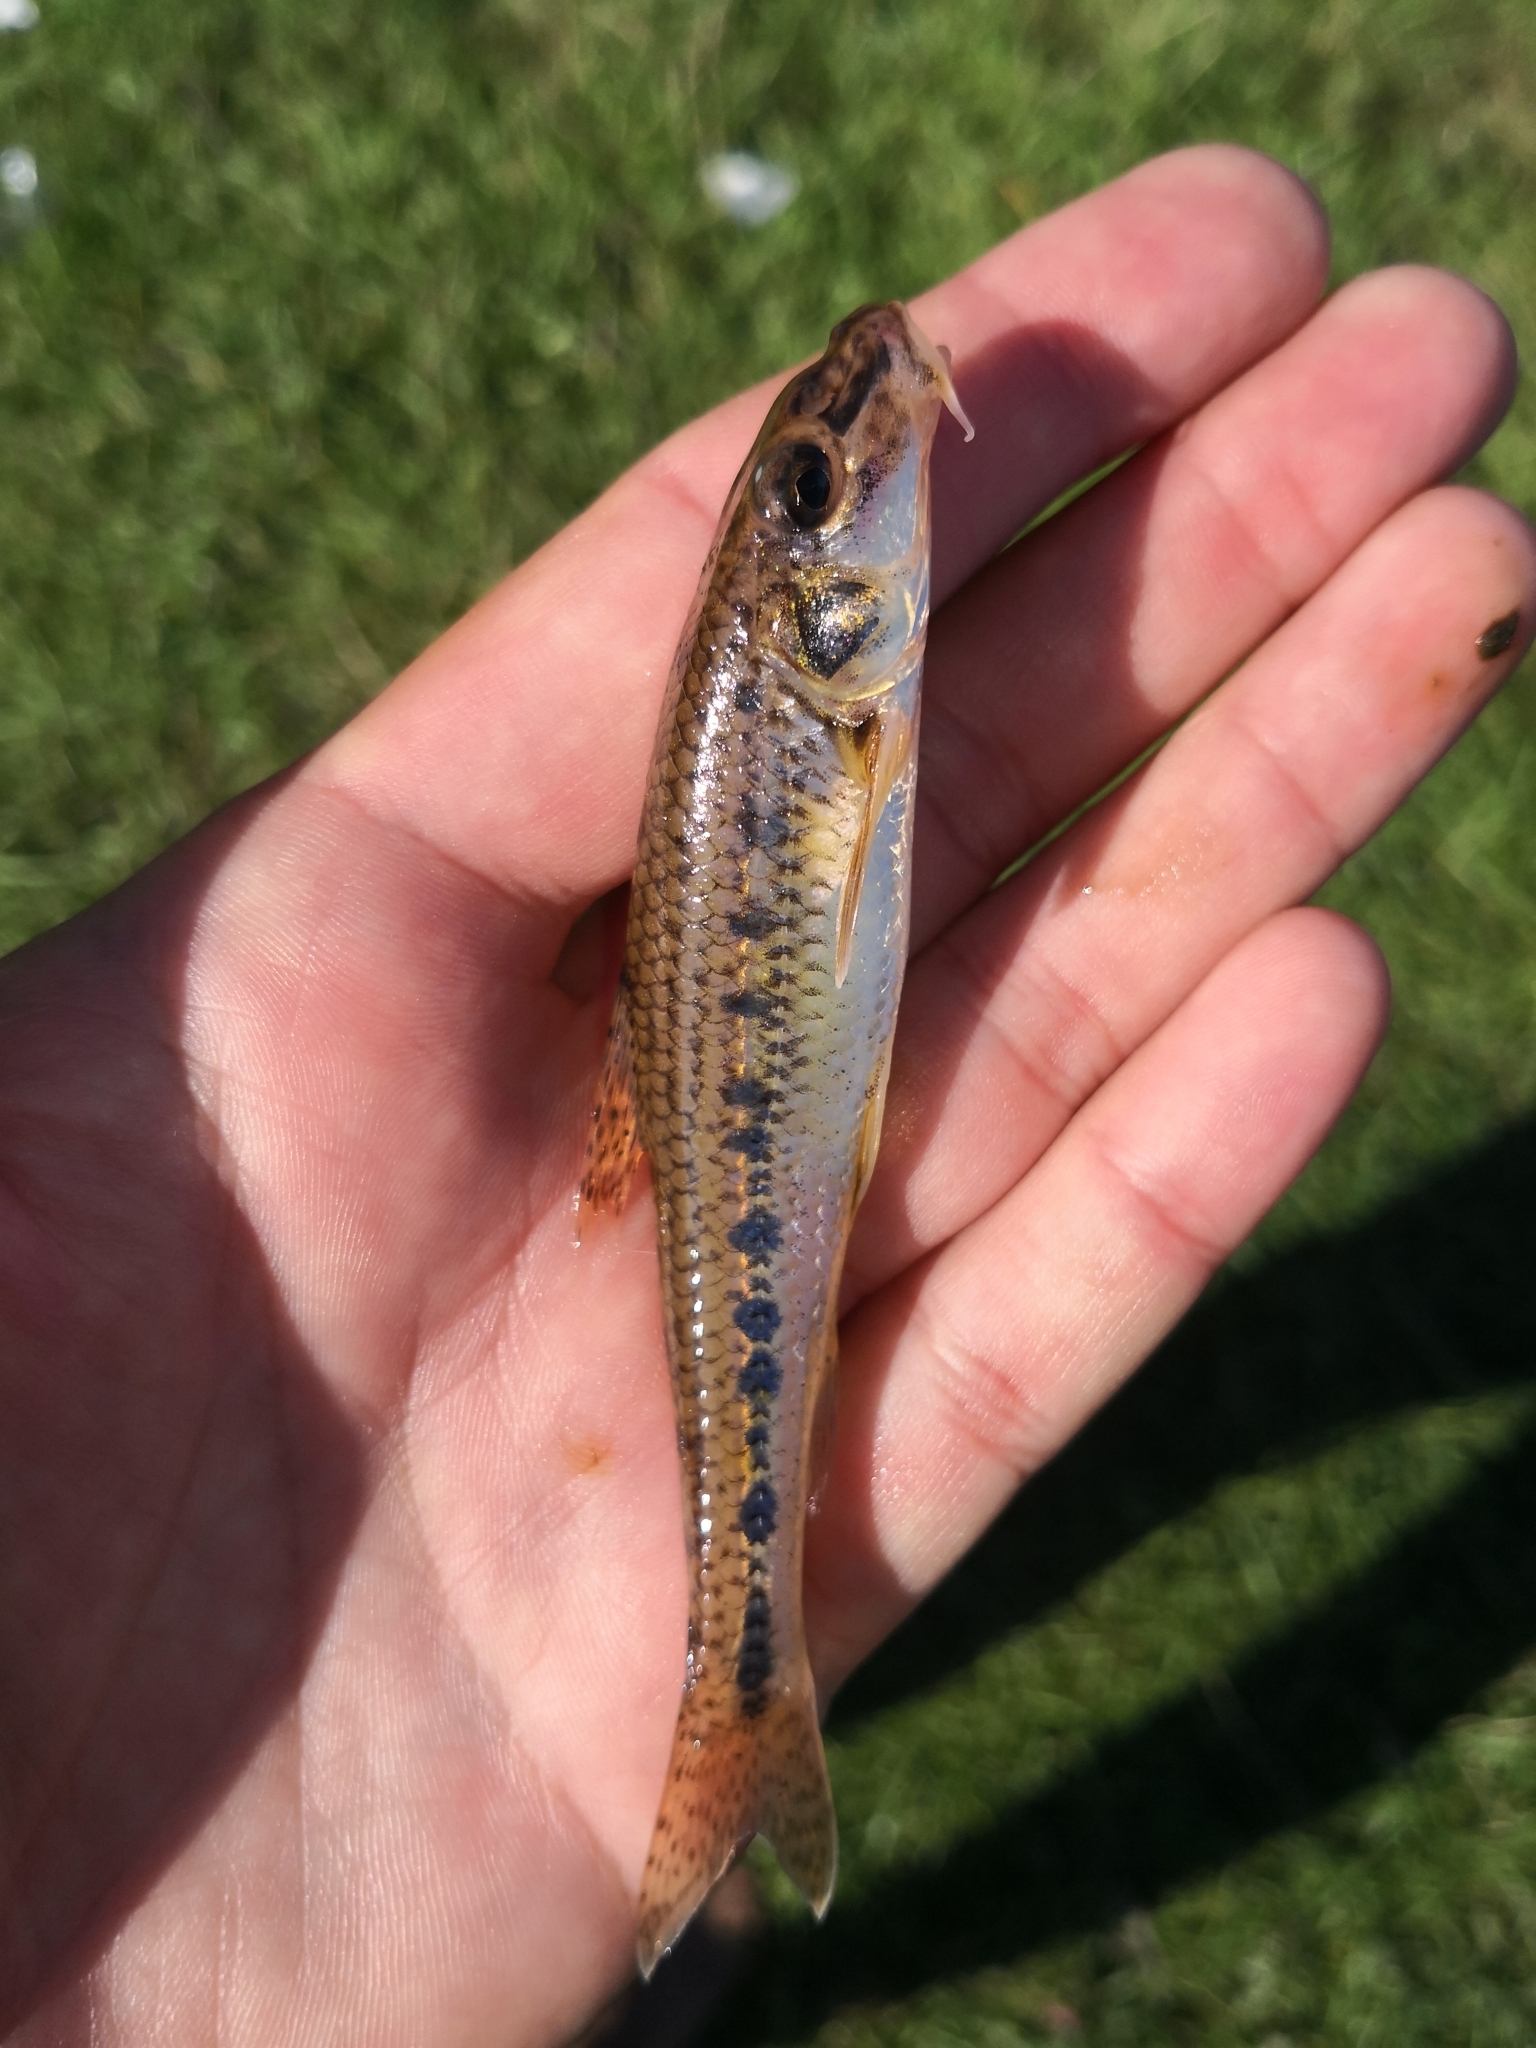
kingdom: Animalia
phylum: Chordata
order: Cypriniformes
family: Cyprinidae
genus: Gobio
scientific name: Gobio gobio
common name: Gudgeon
